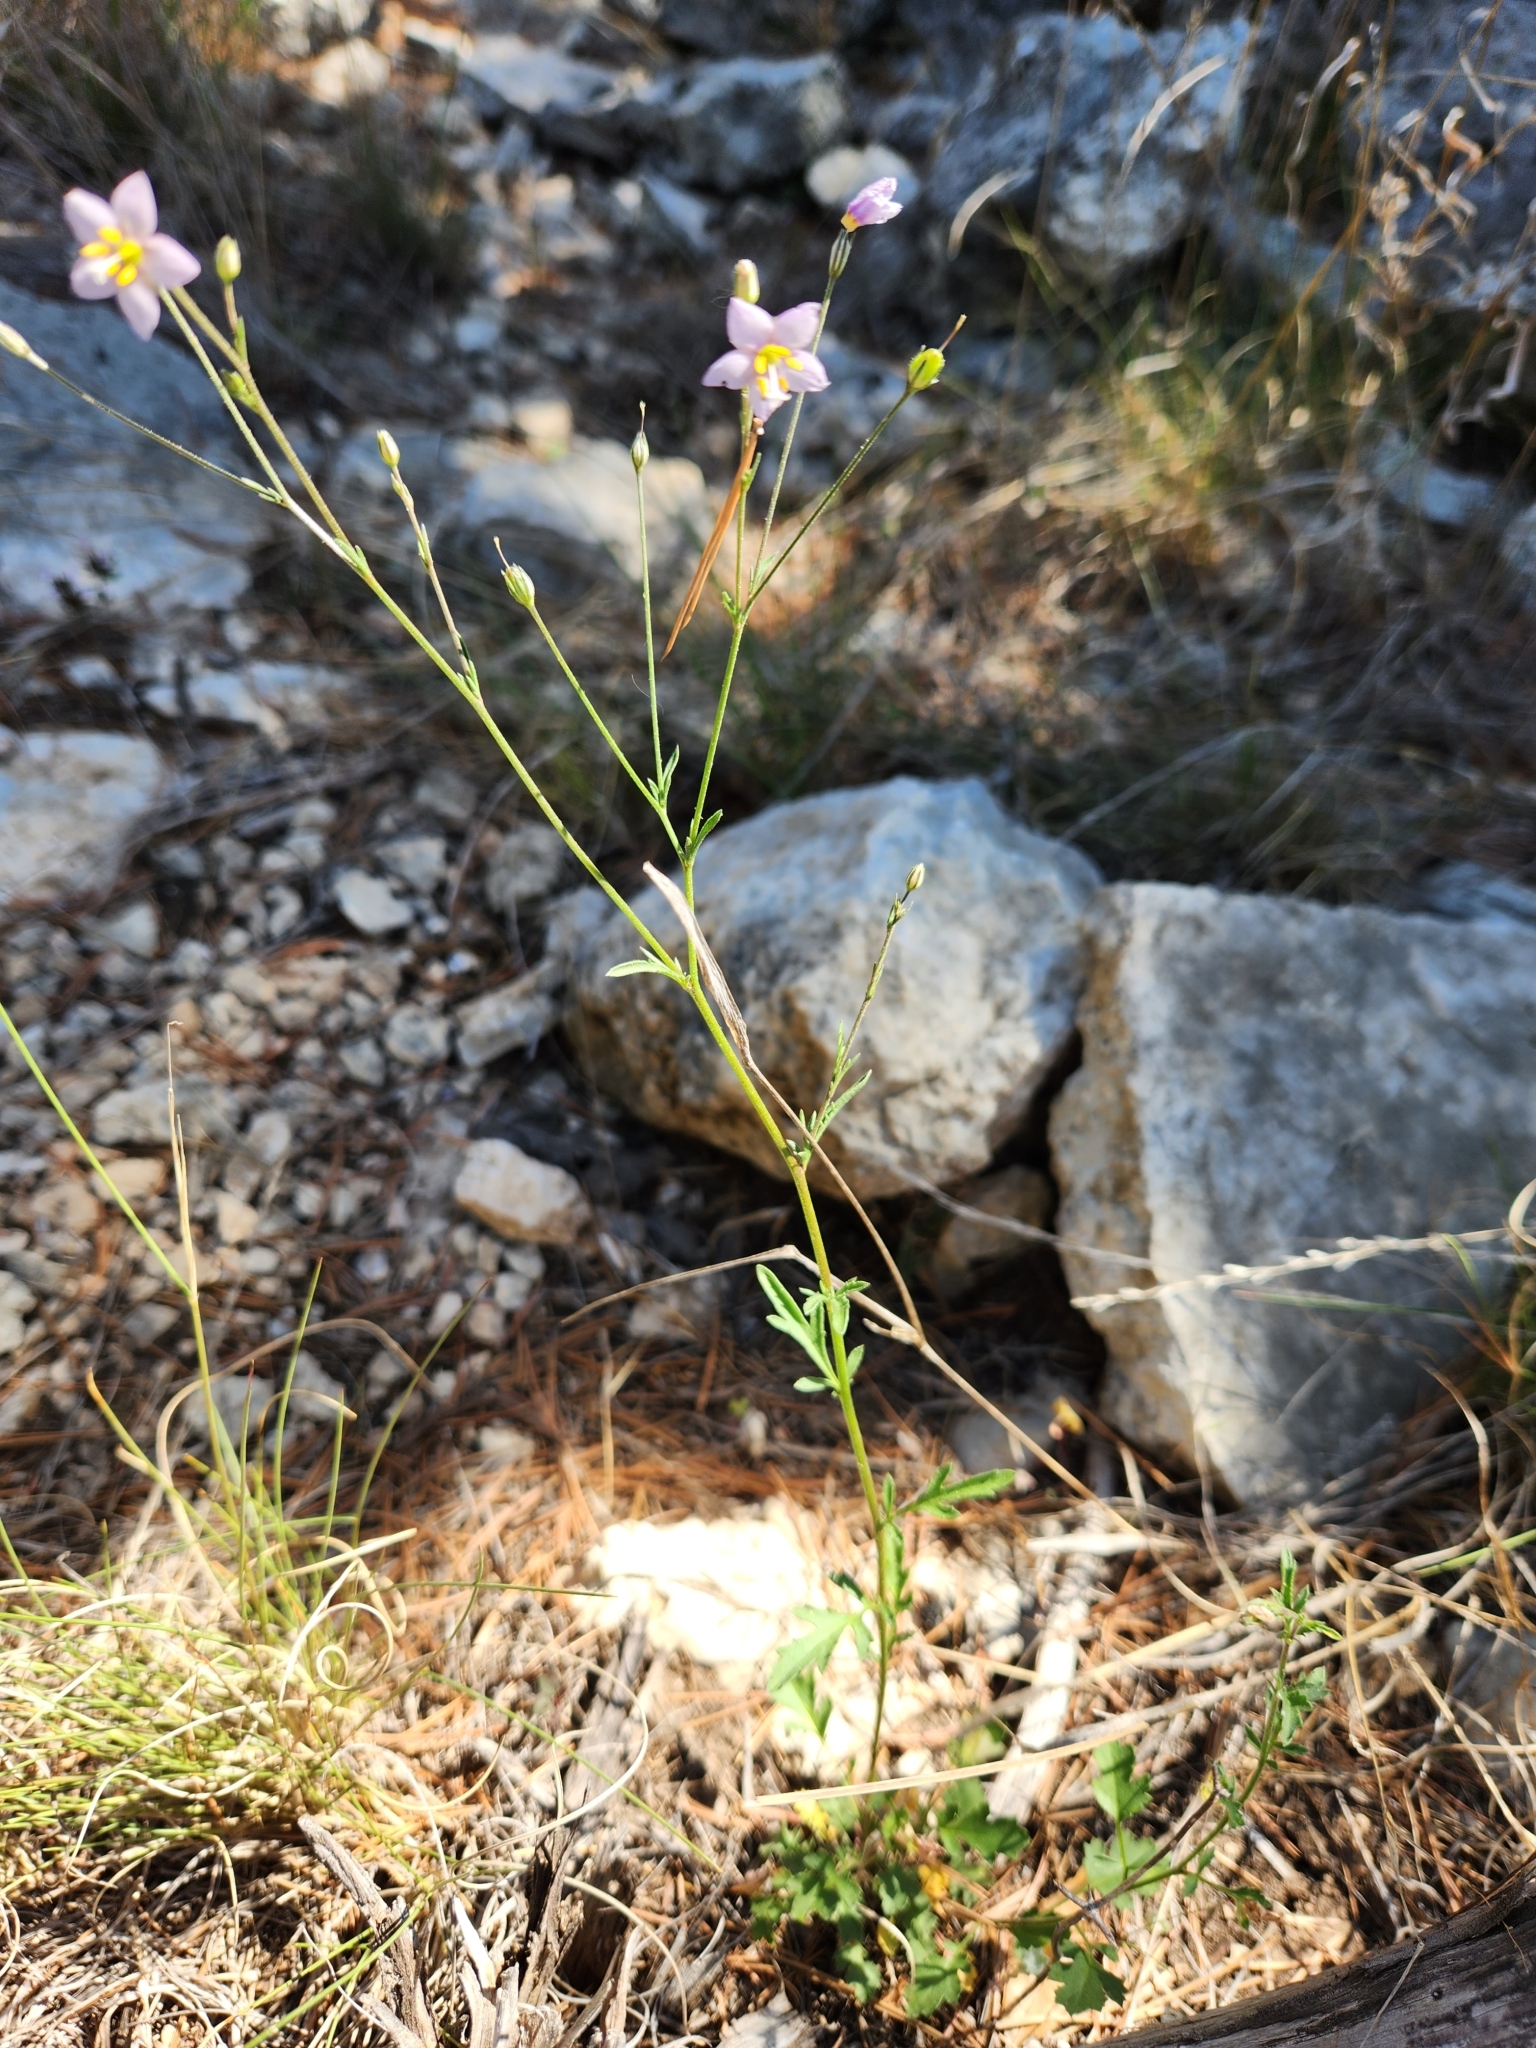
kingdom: Plantae
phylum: Tracheophyta
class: Magnoliopsida
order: Ericales
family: Polemoniaceae
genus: Giliastrum
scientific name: Giliastrum incisum
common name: Splitleaf gilia
